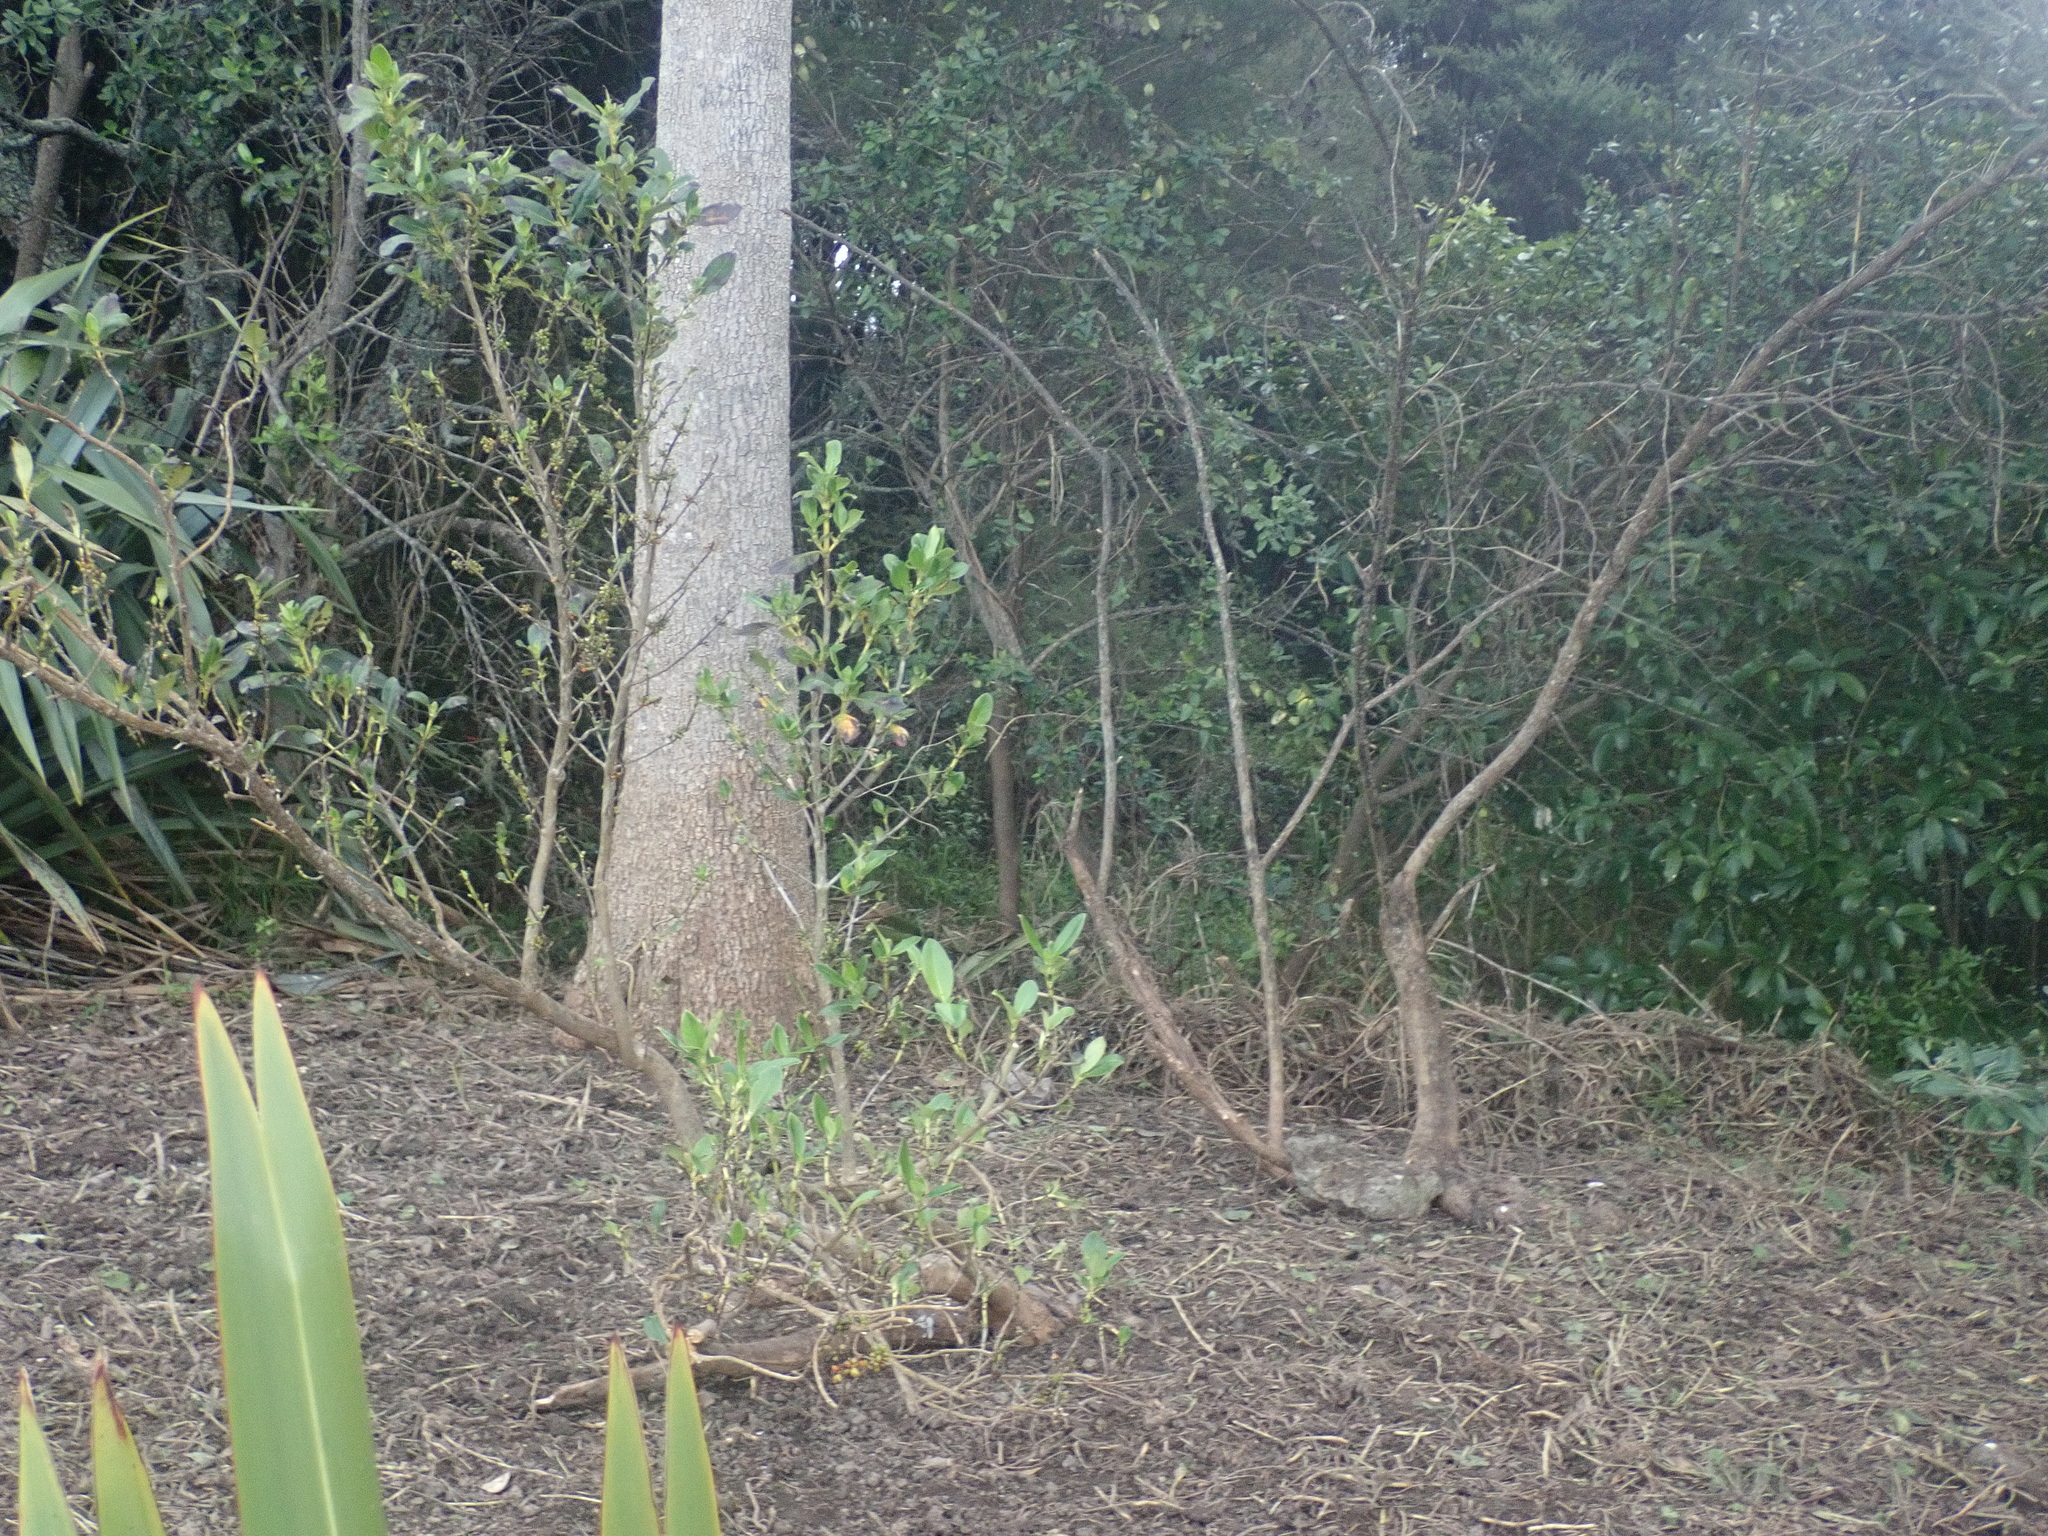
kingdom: Plantae
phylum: Tracheophyta
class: Magnoliopsida
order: Gentianales
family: Rubiaceae
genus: Coprosma
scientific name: Coprosma robusta
